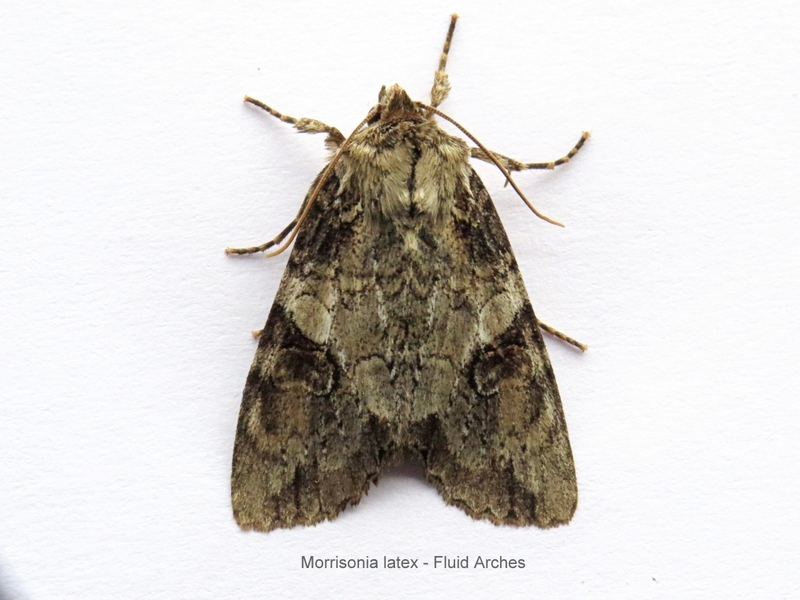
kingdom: Animalia
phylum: Arthropoda
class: Insecta
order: Lepidoptera
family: Noctuidae
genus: Achatia
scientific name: Achatia latex
